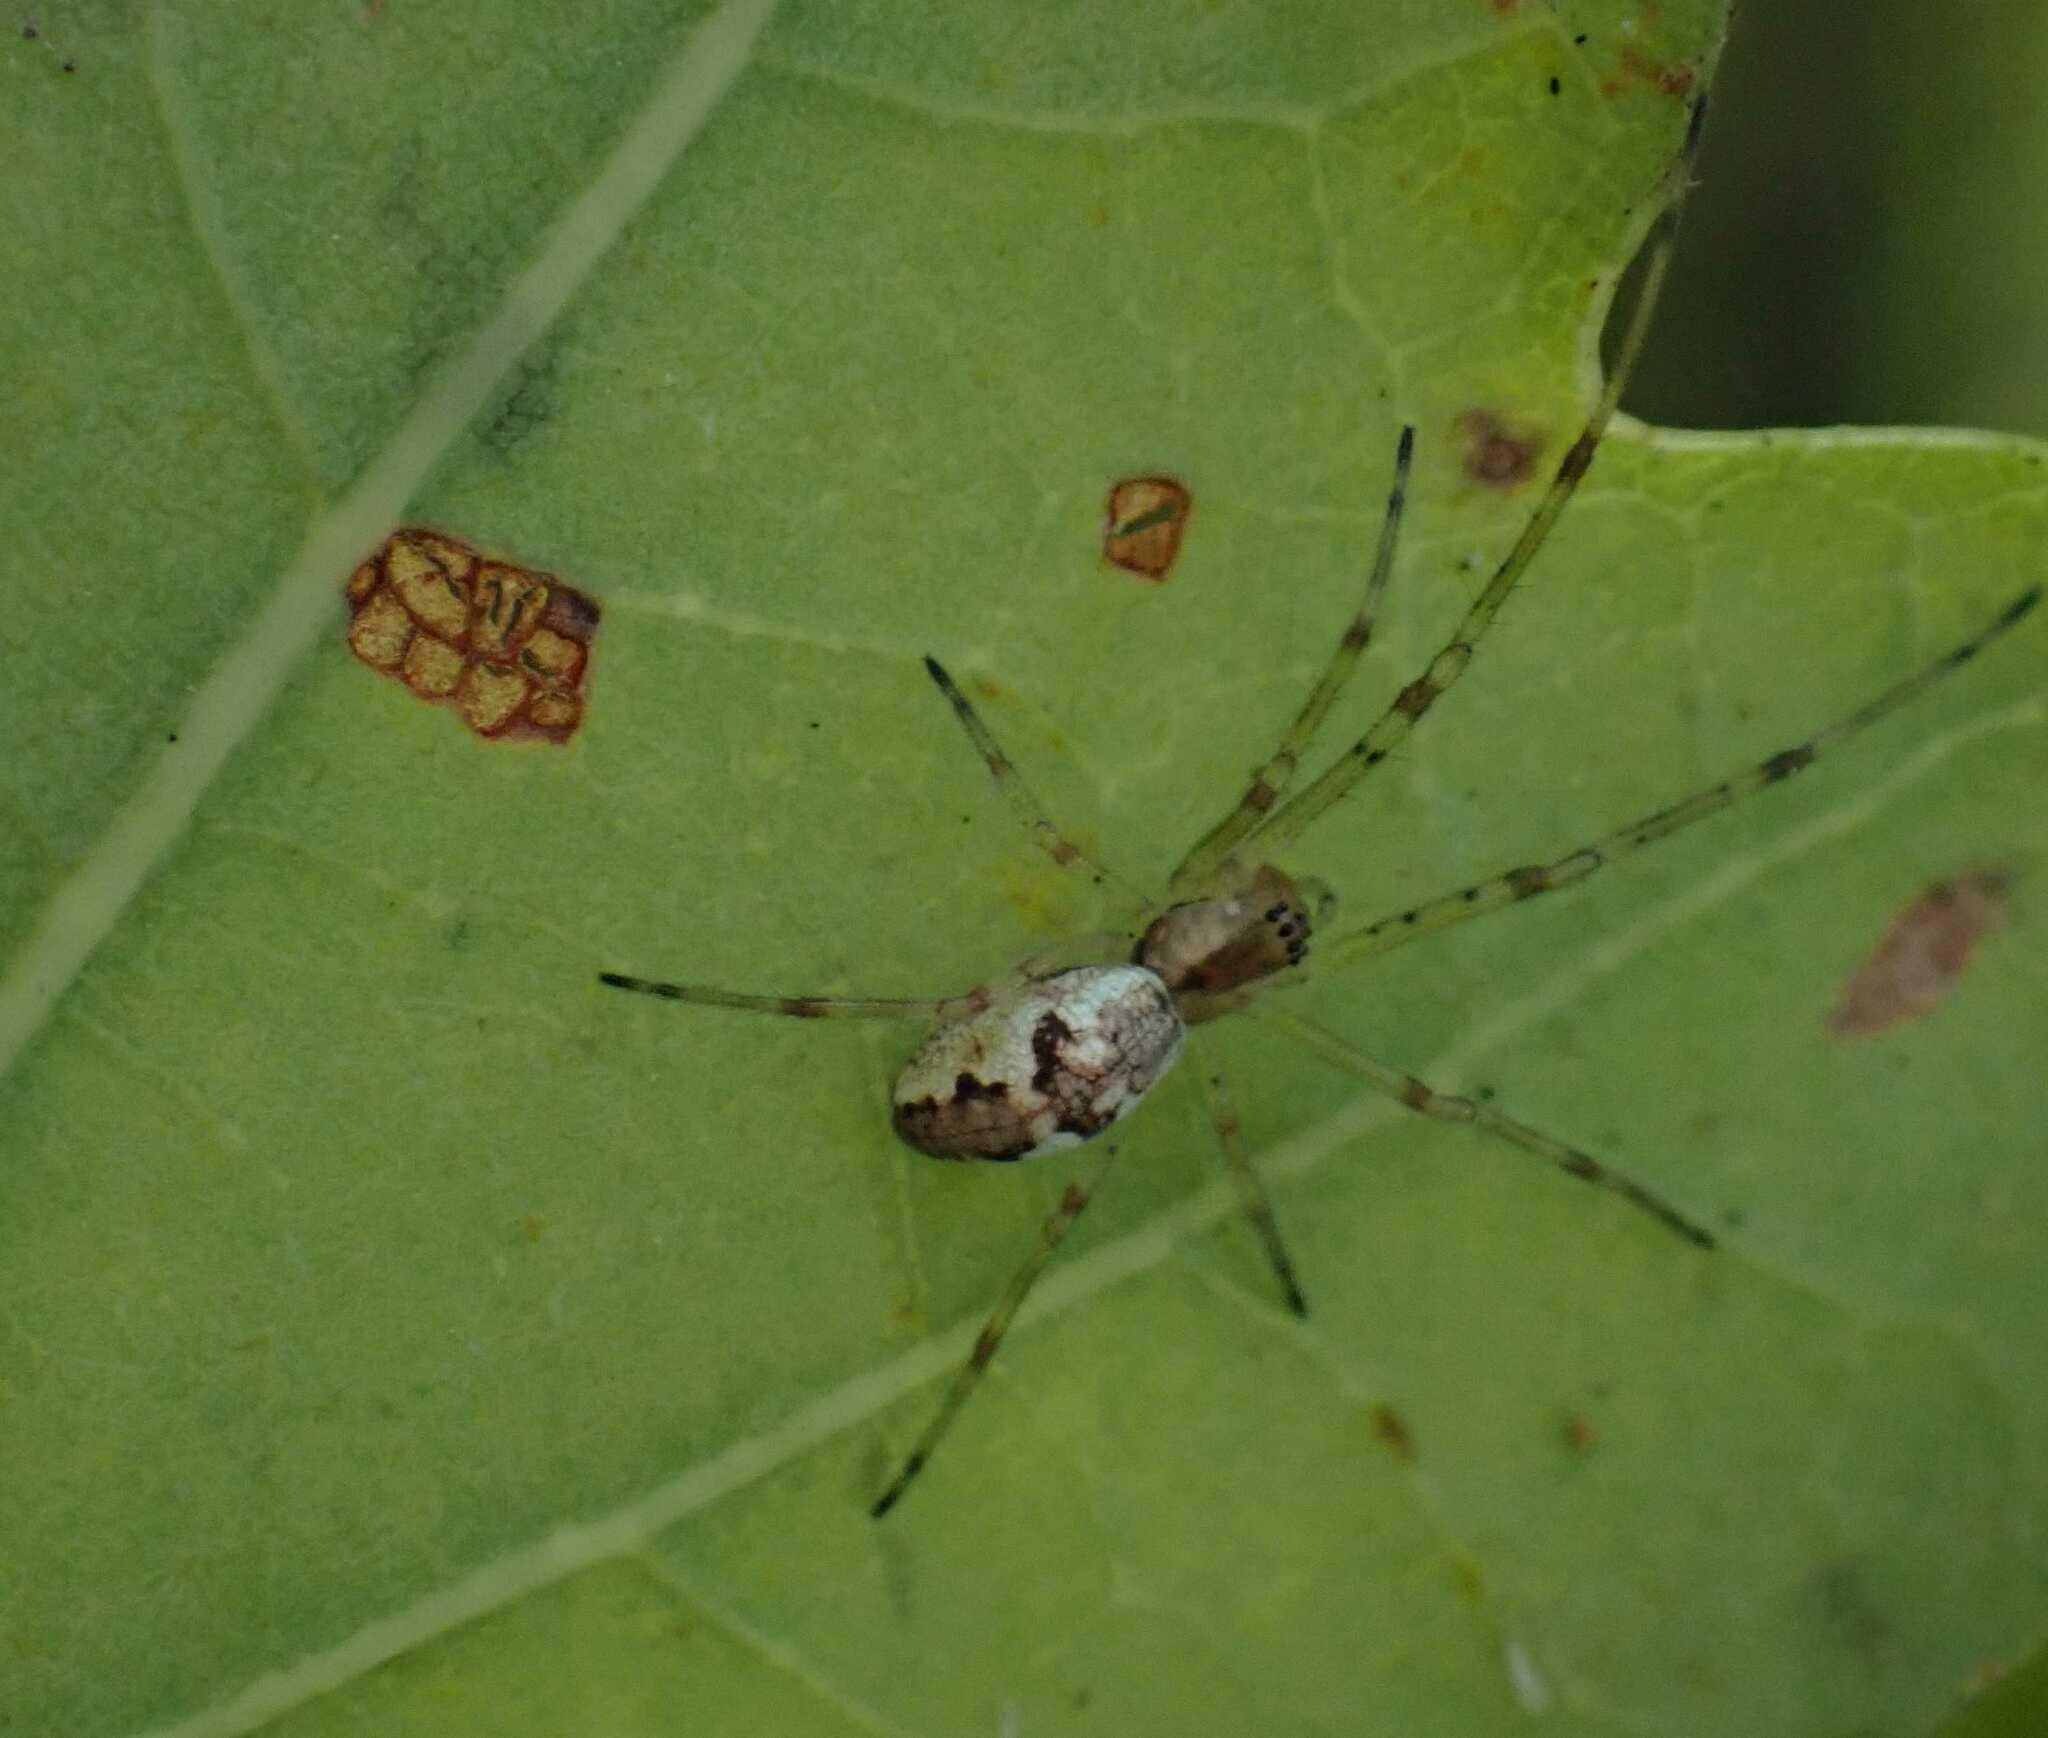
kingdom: Animalia
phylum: Arthropoda
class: Arachnida
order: Araneae
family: Tetragnathidae
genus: Tetragnatha
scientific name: Tetragnatha obtusa
